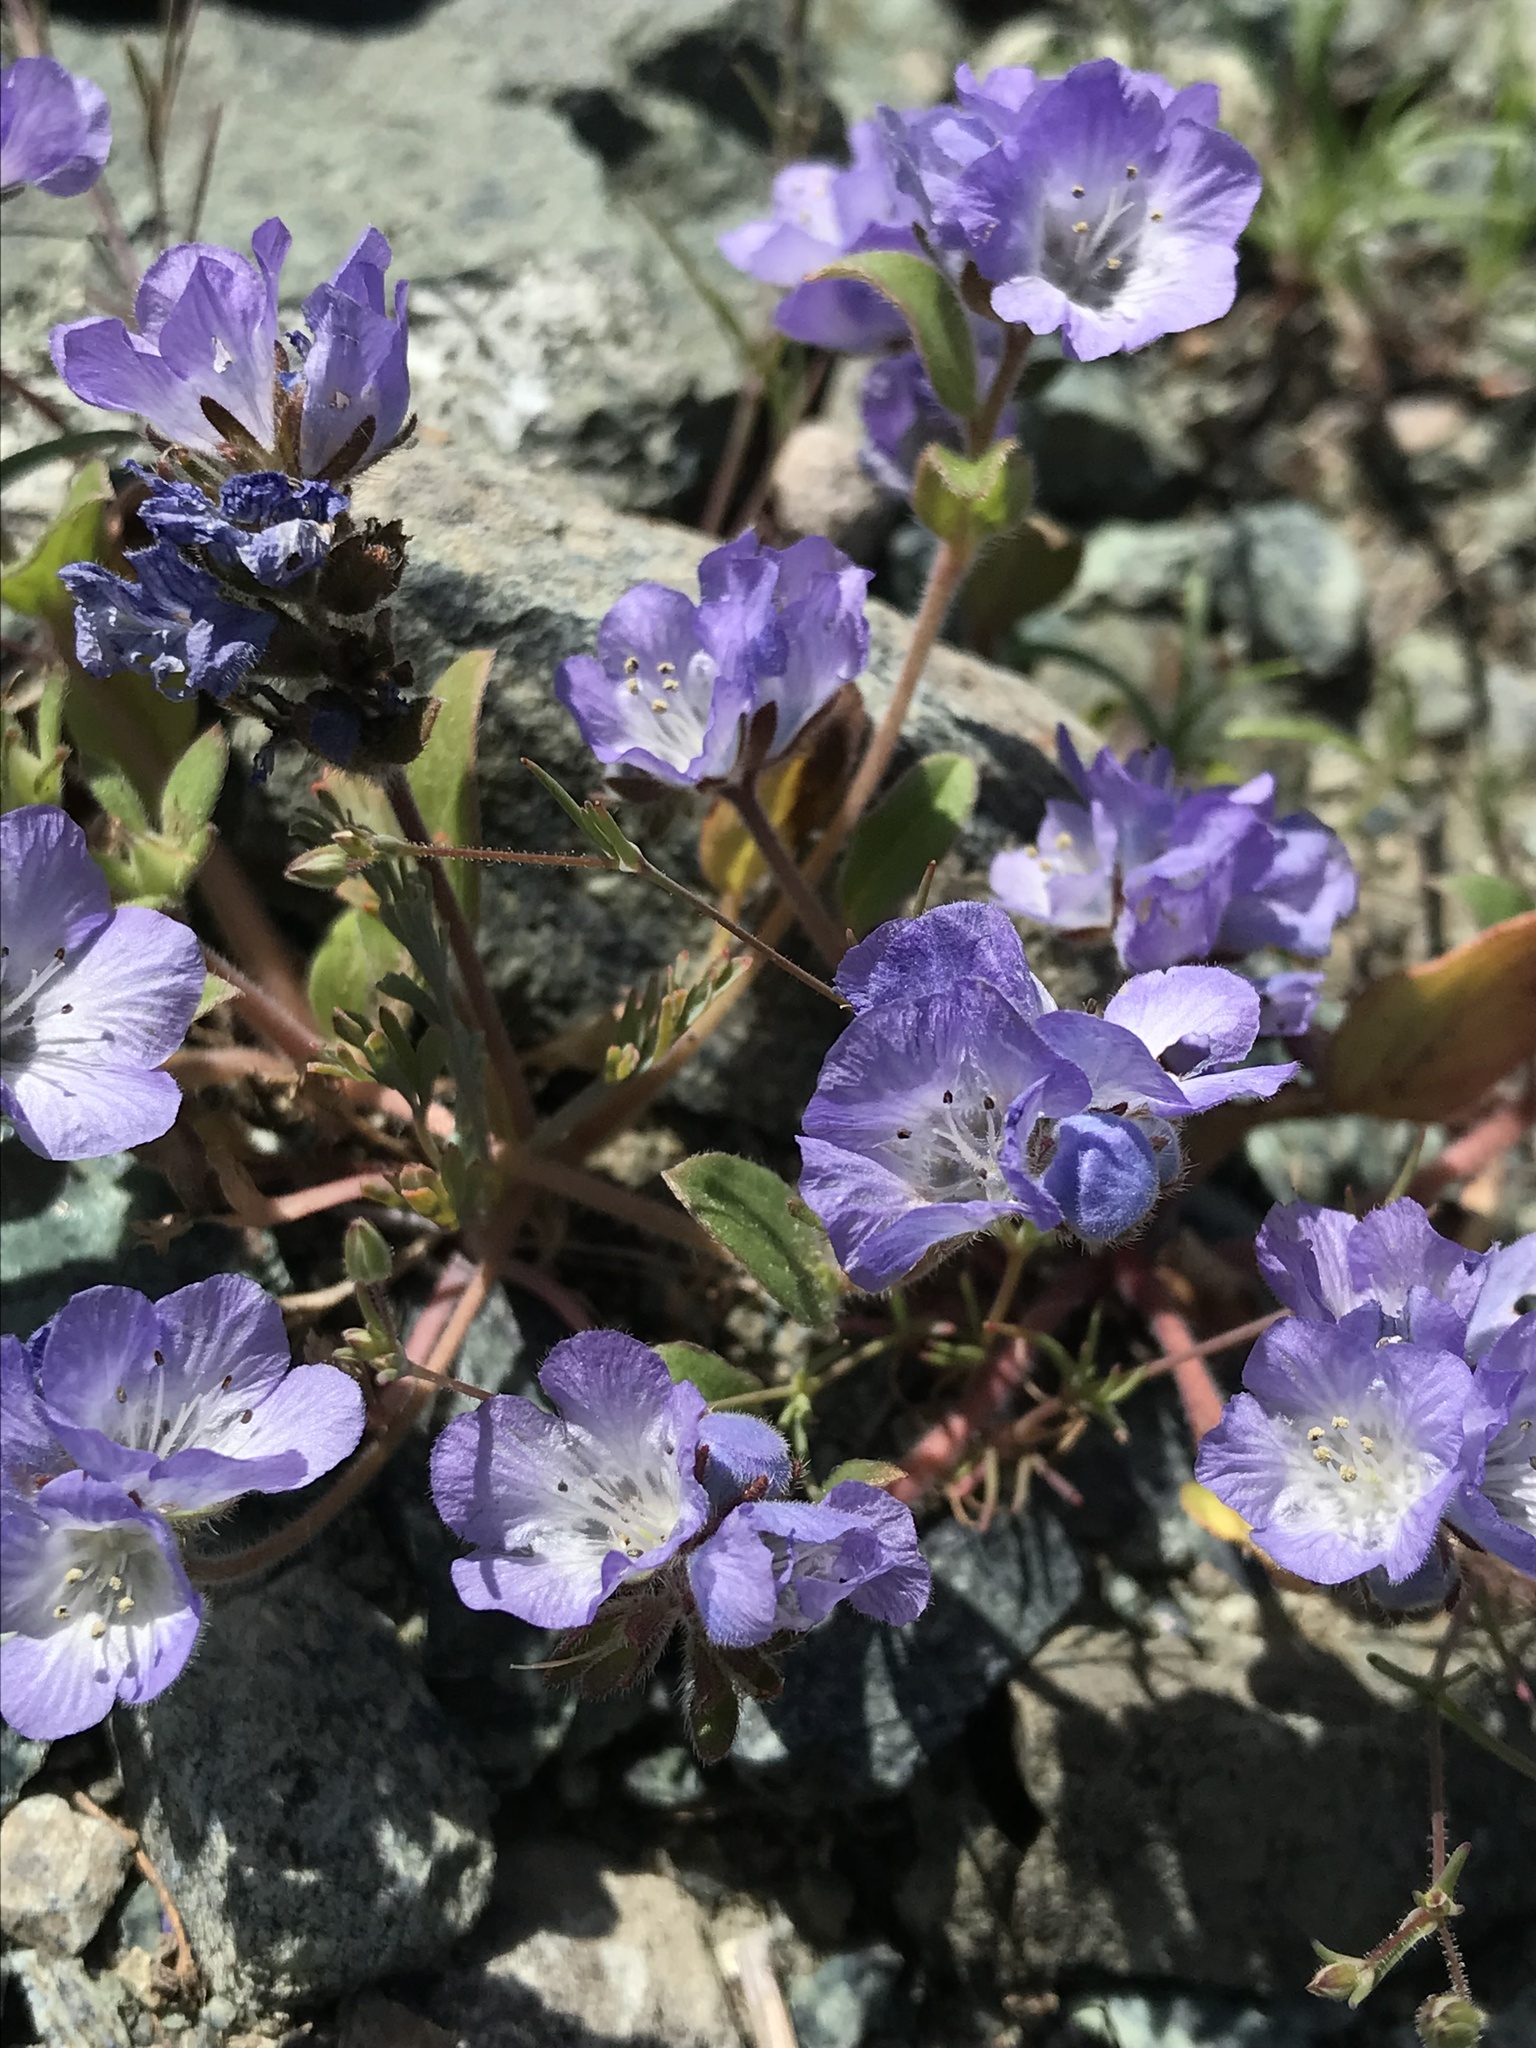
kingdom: Plantae
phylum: Tracheophyta
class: Magnoliopsida
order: Boraginales
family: Hydrophyllaceae
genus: Phacelia
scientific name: Phacelia divaricata
